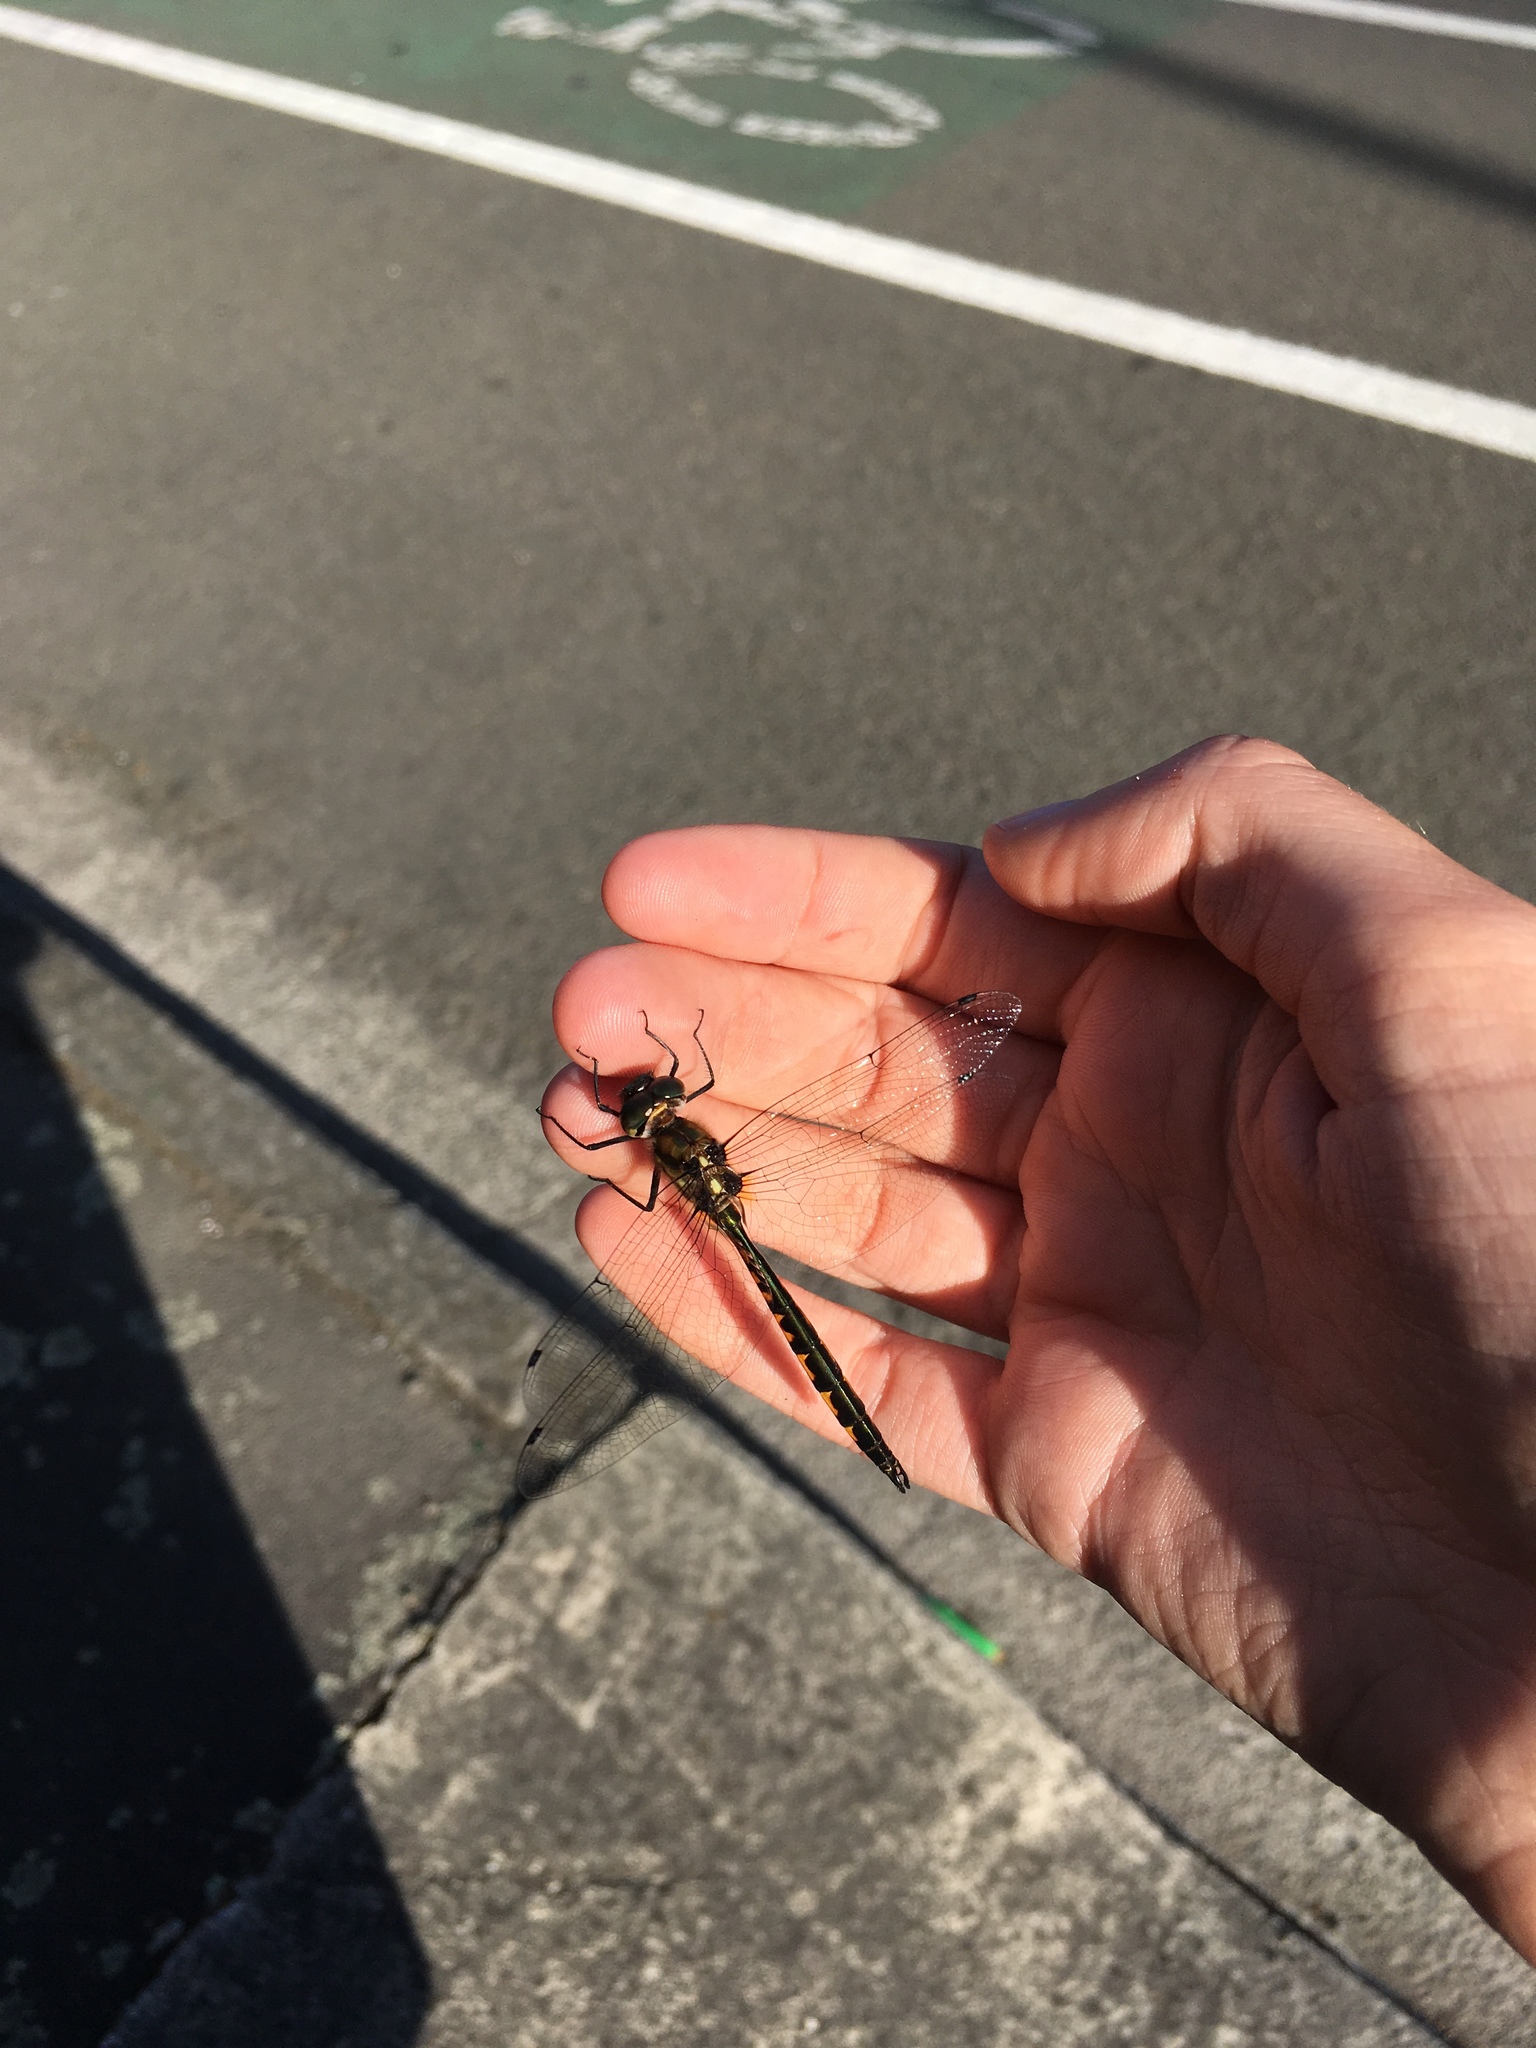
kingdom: Animalia
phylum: Arthropoda
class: Insecta
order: Odonata
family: Corduliidae
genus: Hemicordulia
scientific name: Hemicordulia australiae
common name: Sentry dragonfly
